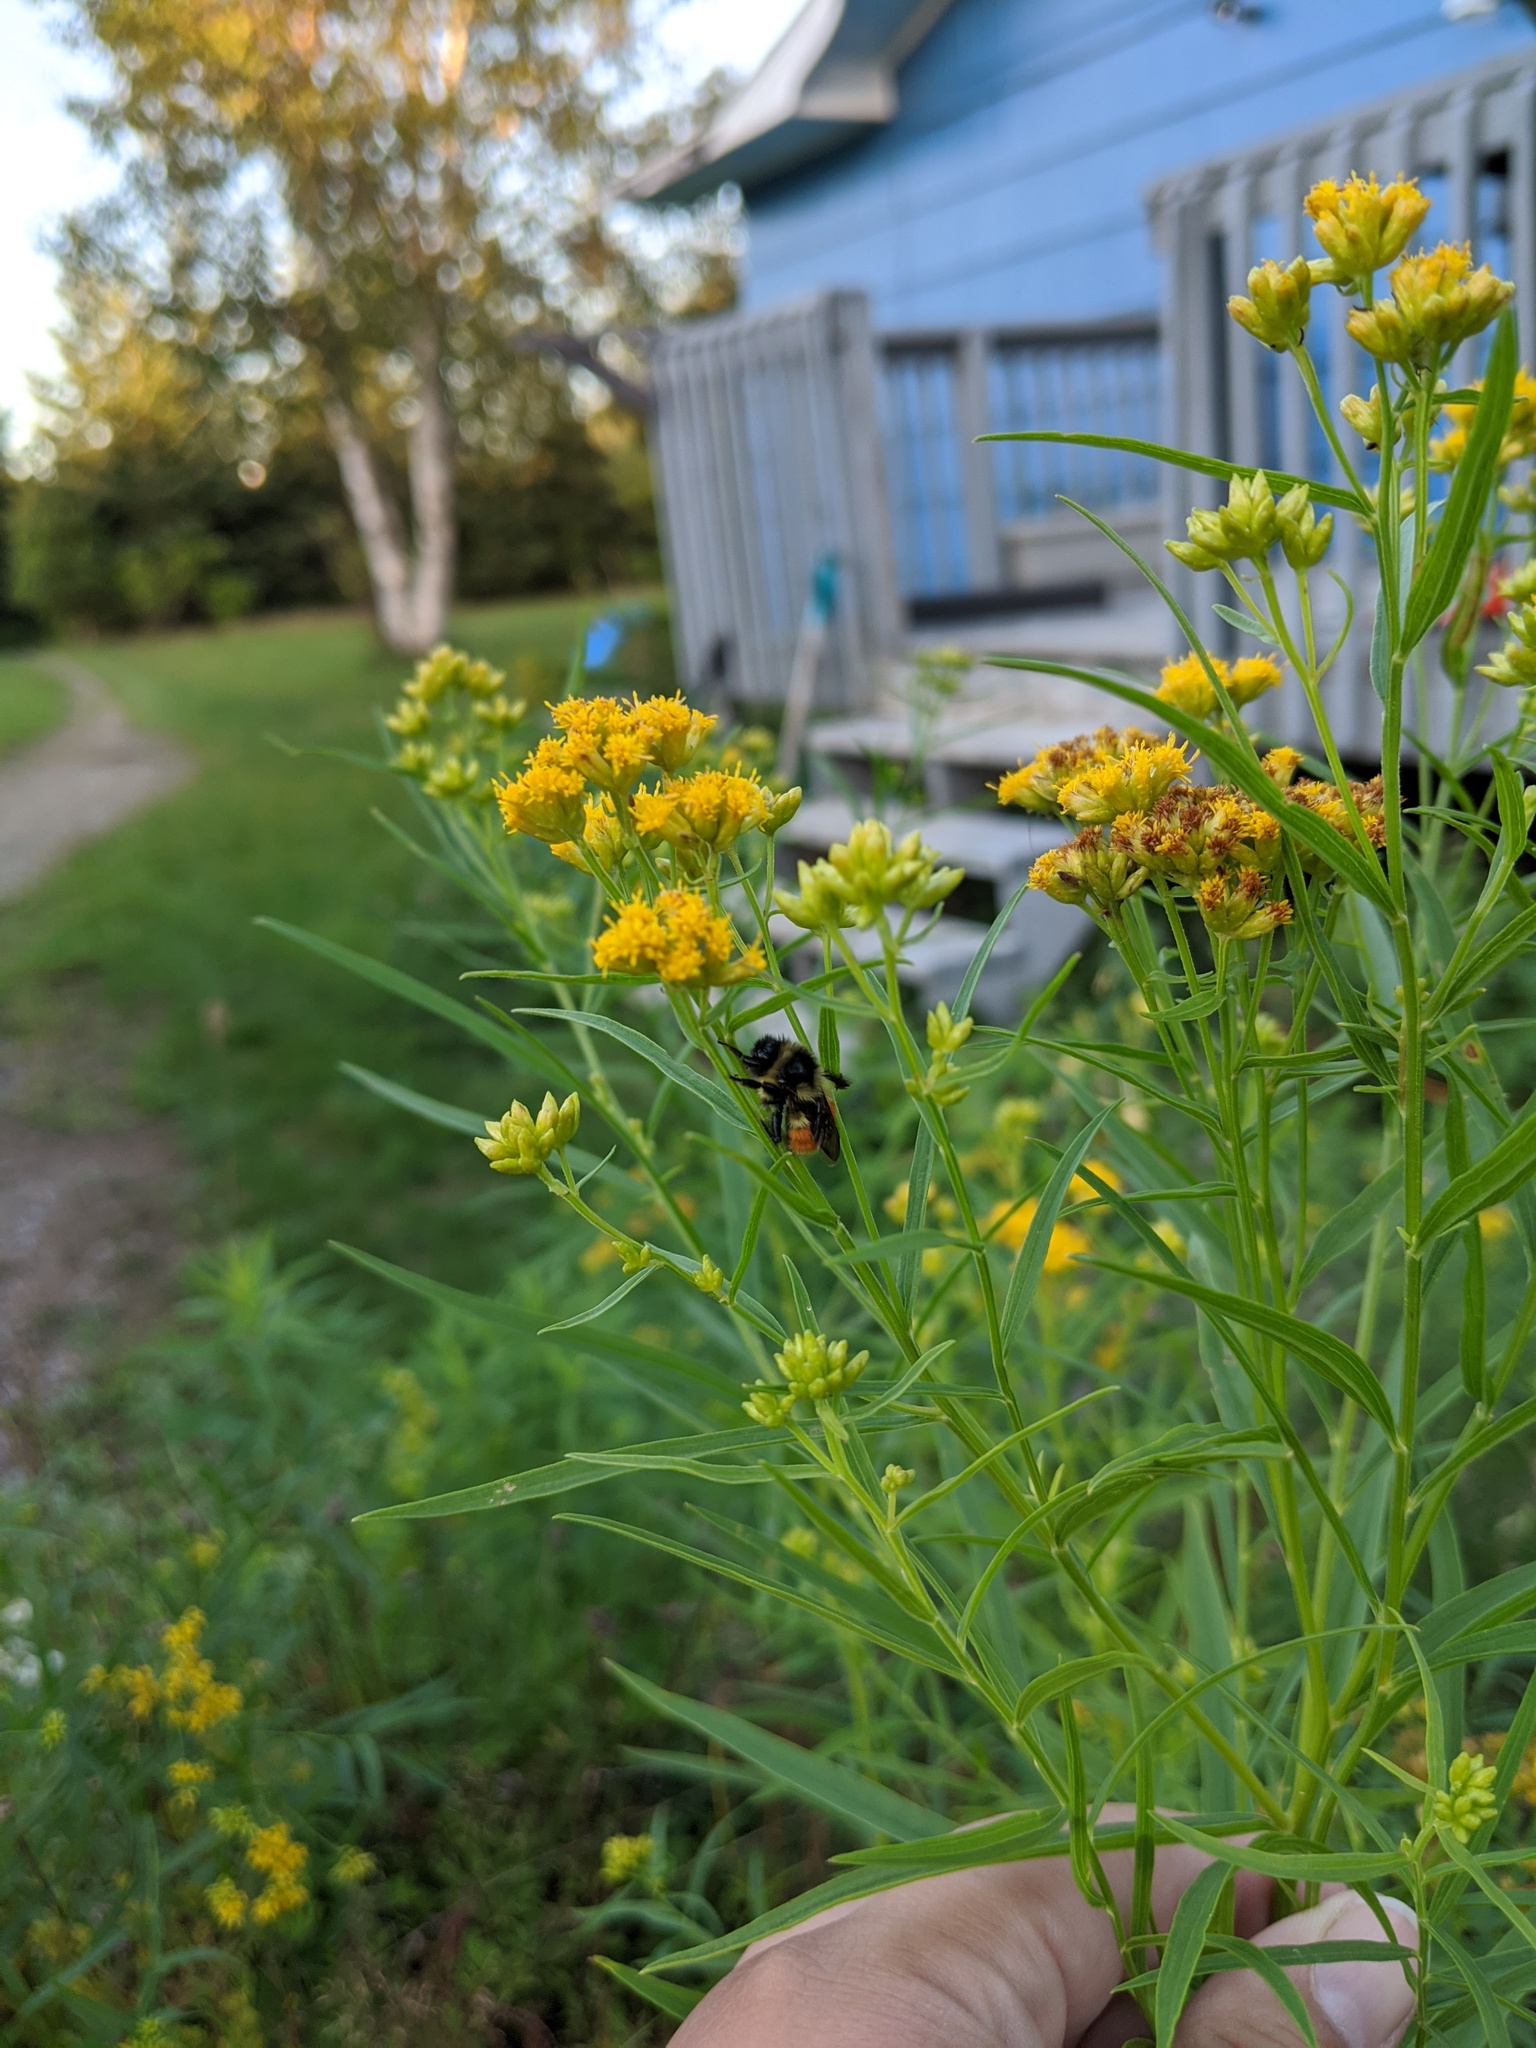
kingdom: Plantae
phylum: Tracheophyta
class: Magnoliopsida
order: Asterales
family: Asteraceae
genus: Euthamia
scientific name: Euthamia graminifolia
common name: Common goldentop
